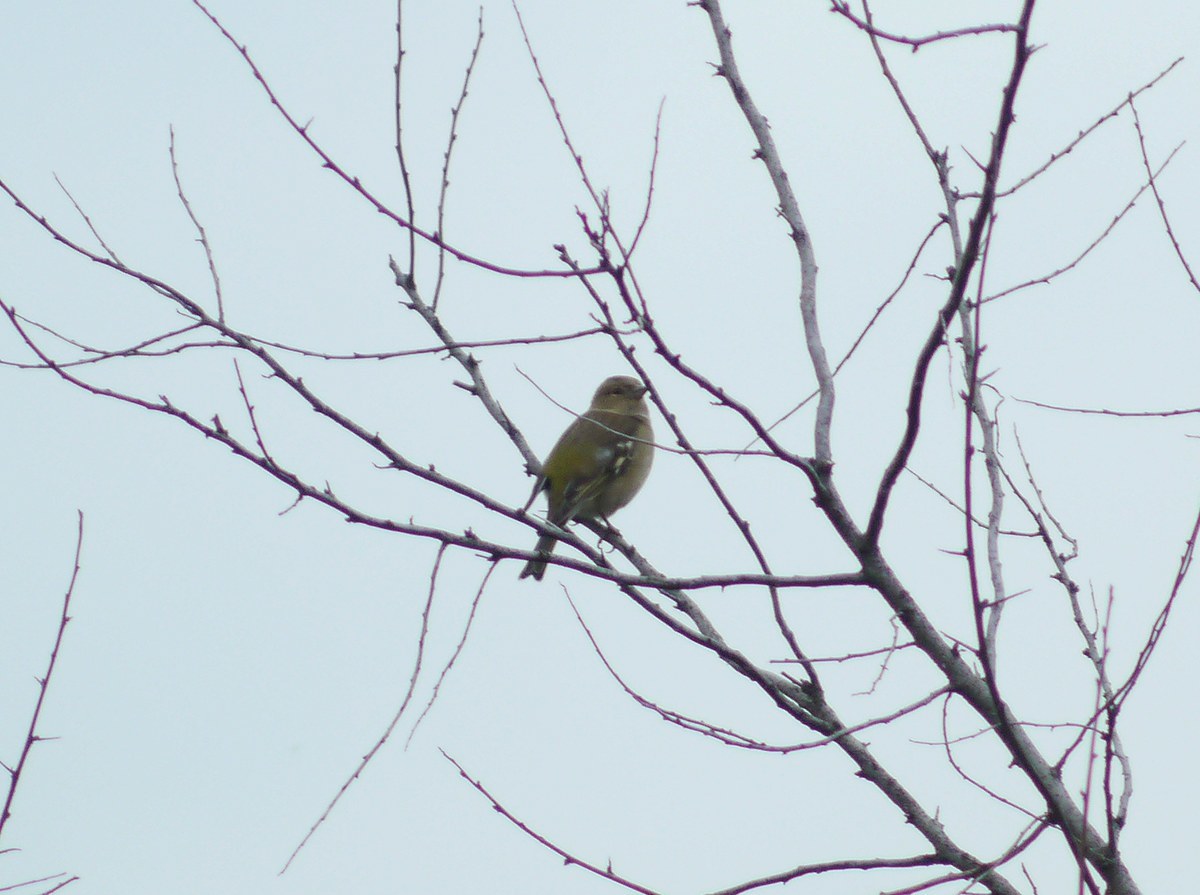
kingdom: Animalia
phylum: Chordata
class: Aves
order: Passeriformes
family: Fringillidae
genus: Fringilla
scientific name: Fringilla coelebs
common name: Common chaffinch
